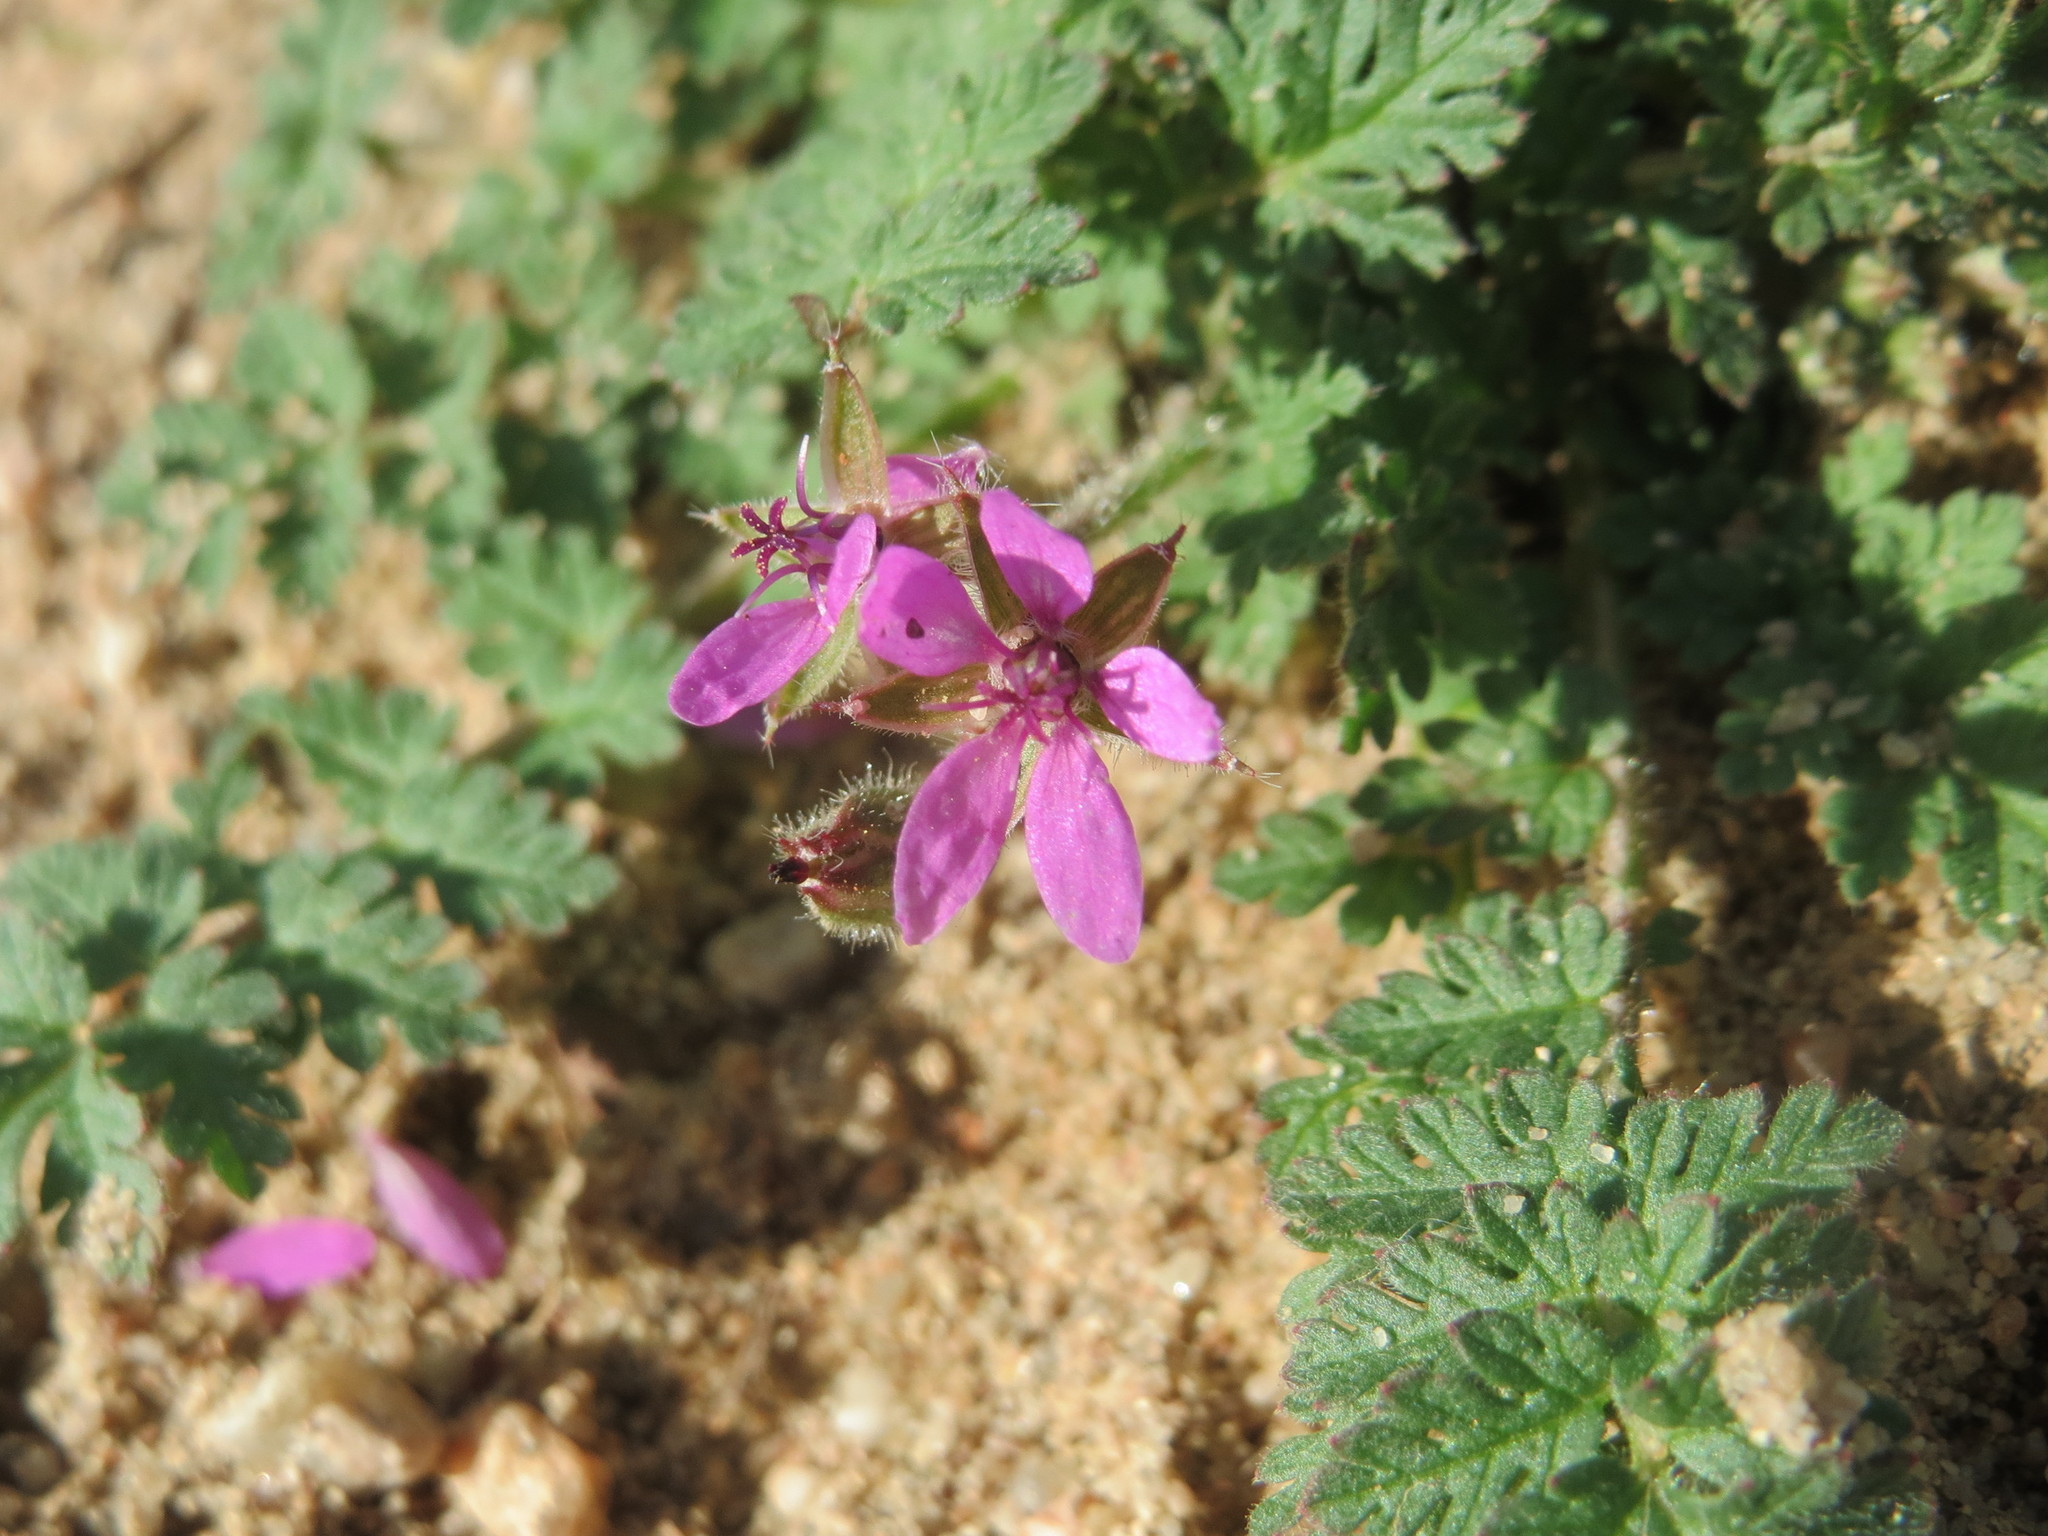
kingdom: Plantae
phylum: Tracheophyta
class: Magnoliopsida
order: Geraniales
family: Geraniaceae
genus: Erodium
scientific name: Erodium cicutarium
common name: Common stork's-bill
